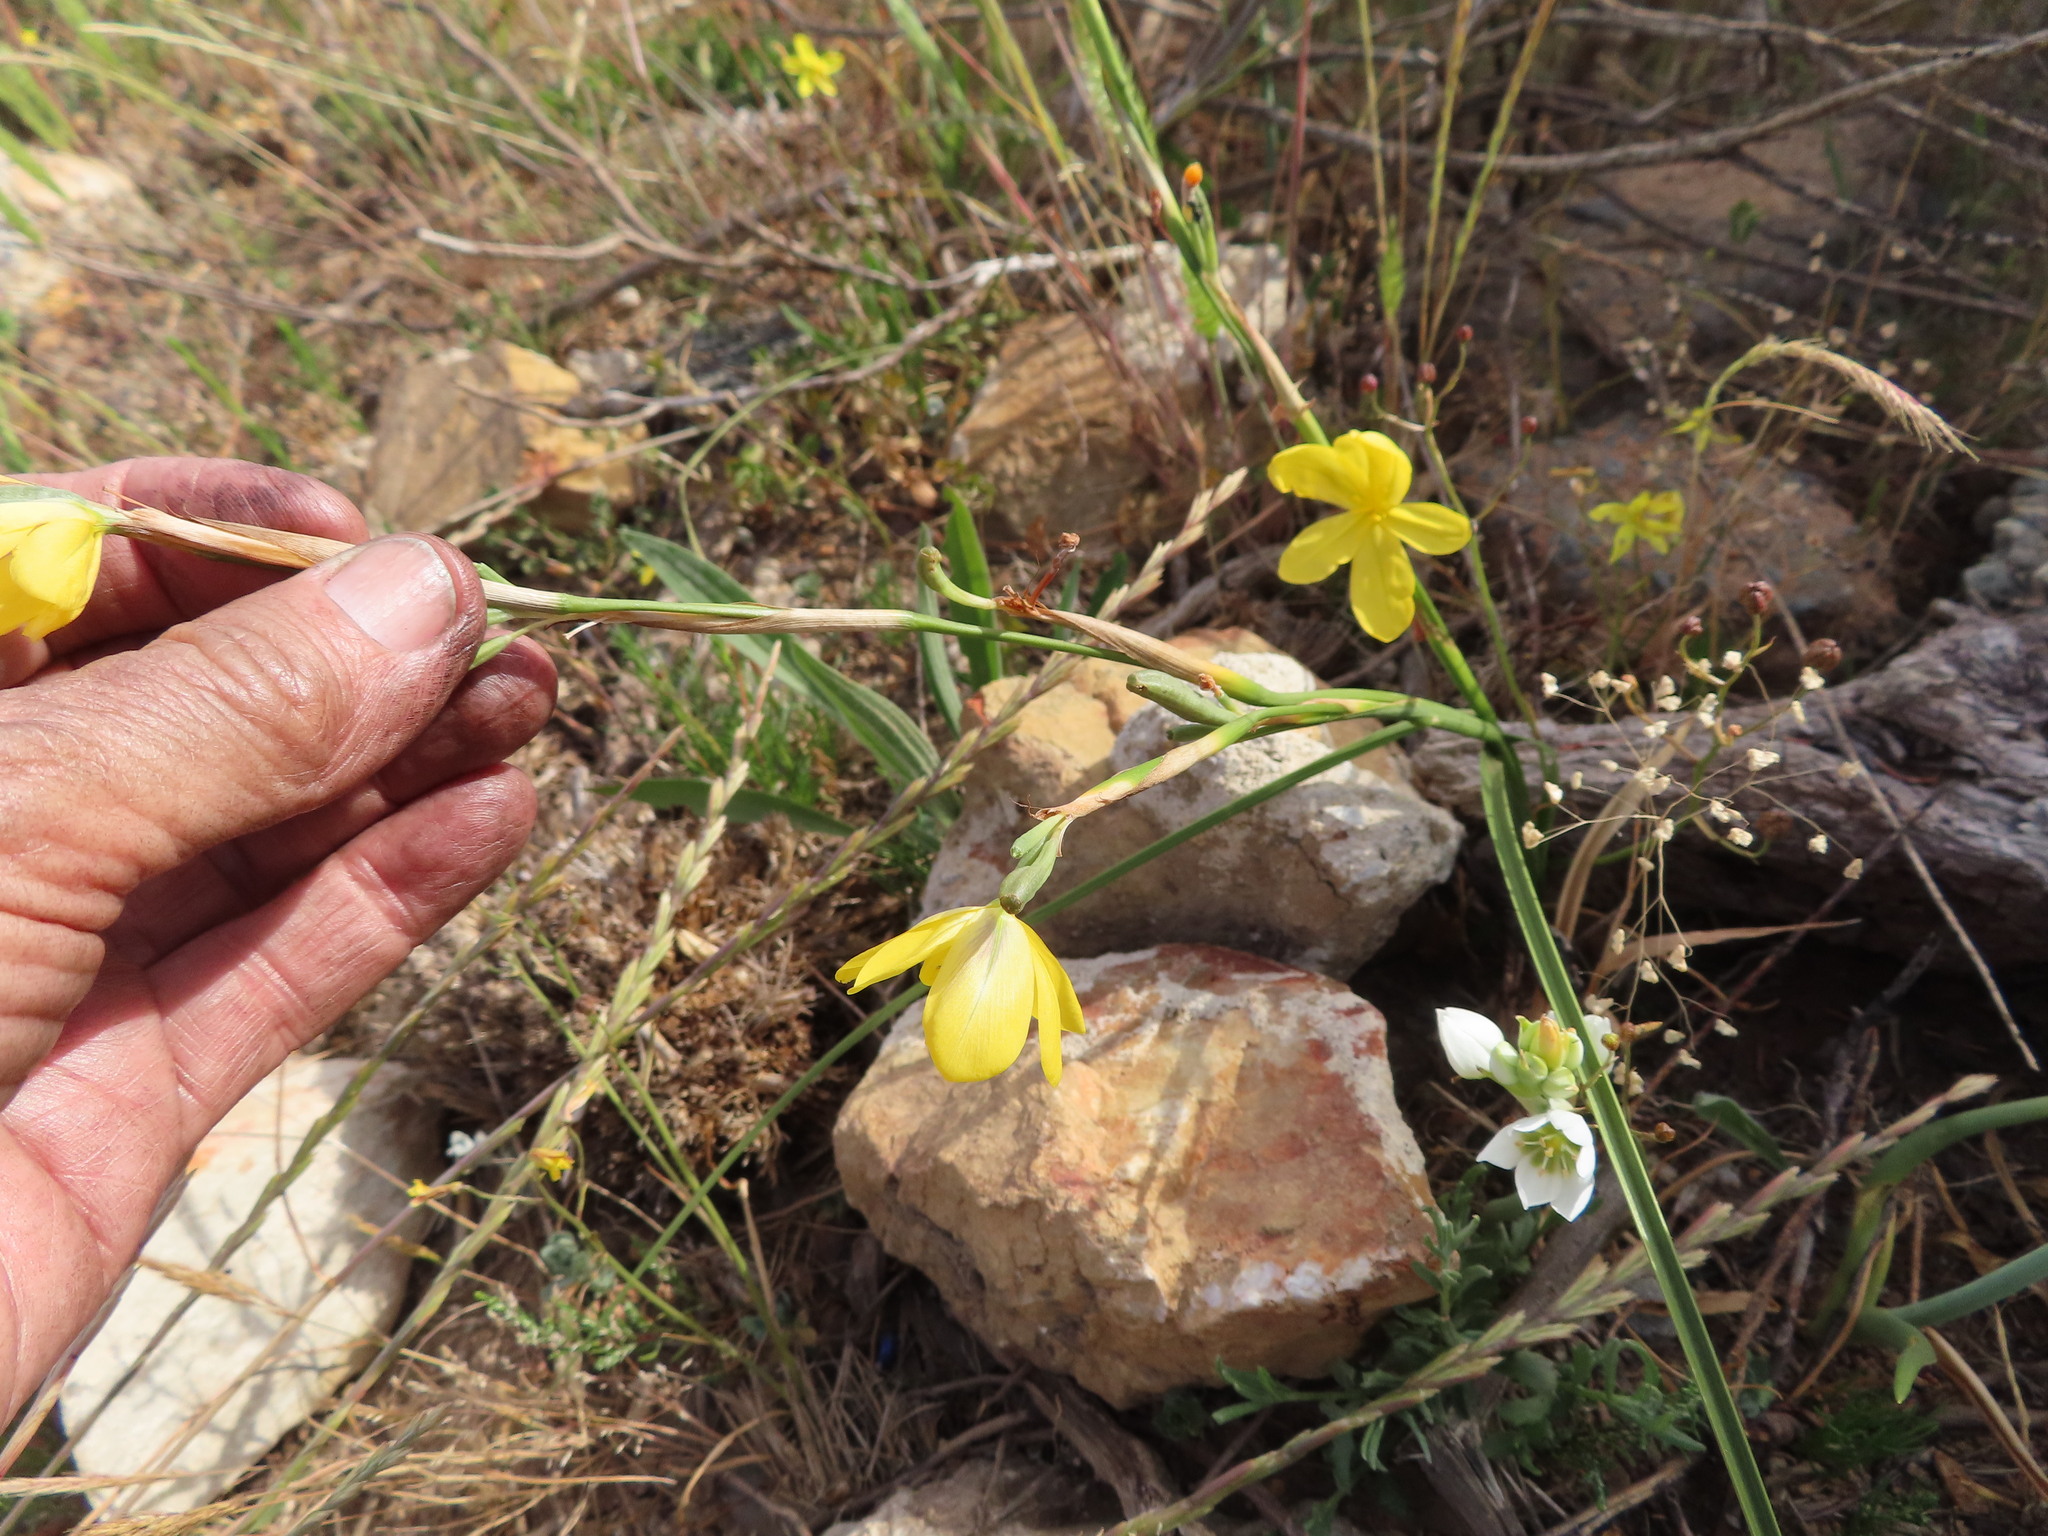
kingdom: Plantae
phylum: Tracheophyta
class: Liliopsida
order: Asparagales
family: Iridaceae
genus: Moraea
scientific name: Moraea lewisiae
